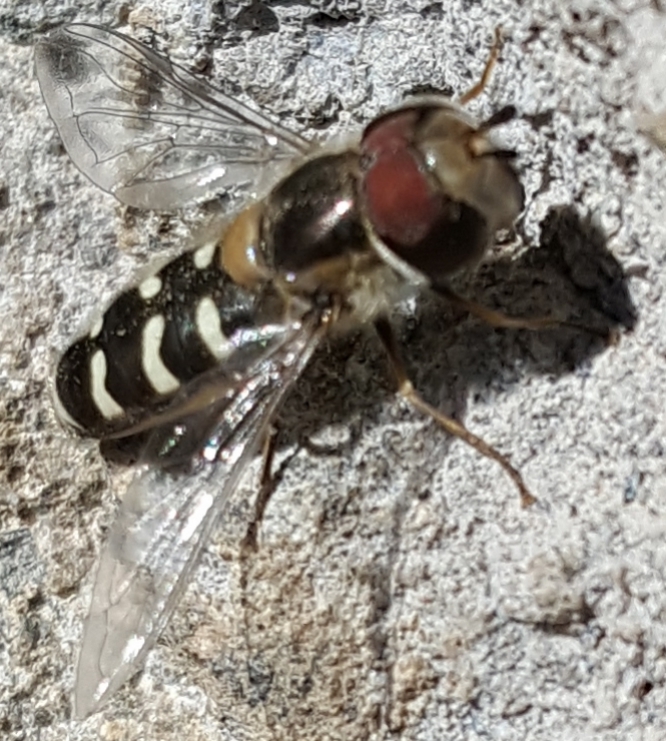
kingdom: Animalia
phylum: Arthropoda
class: Insecta
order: Diptera
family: Syrphidae
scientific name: Syrphidae
